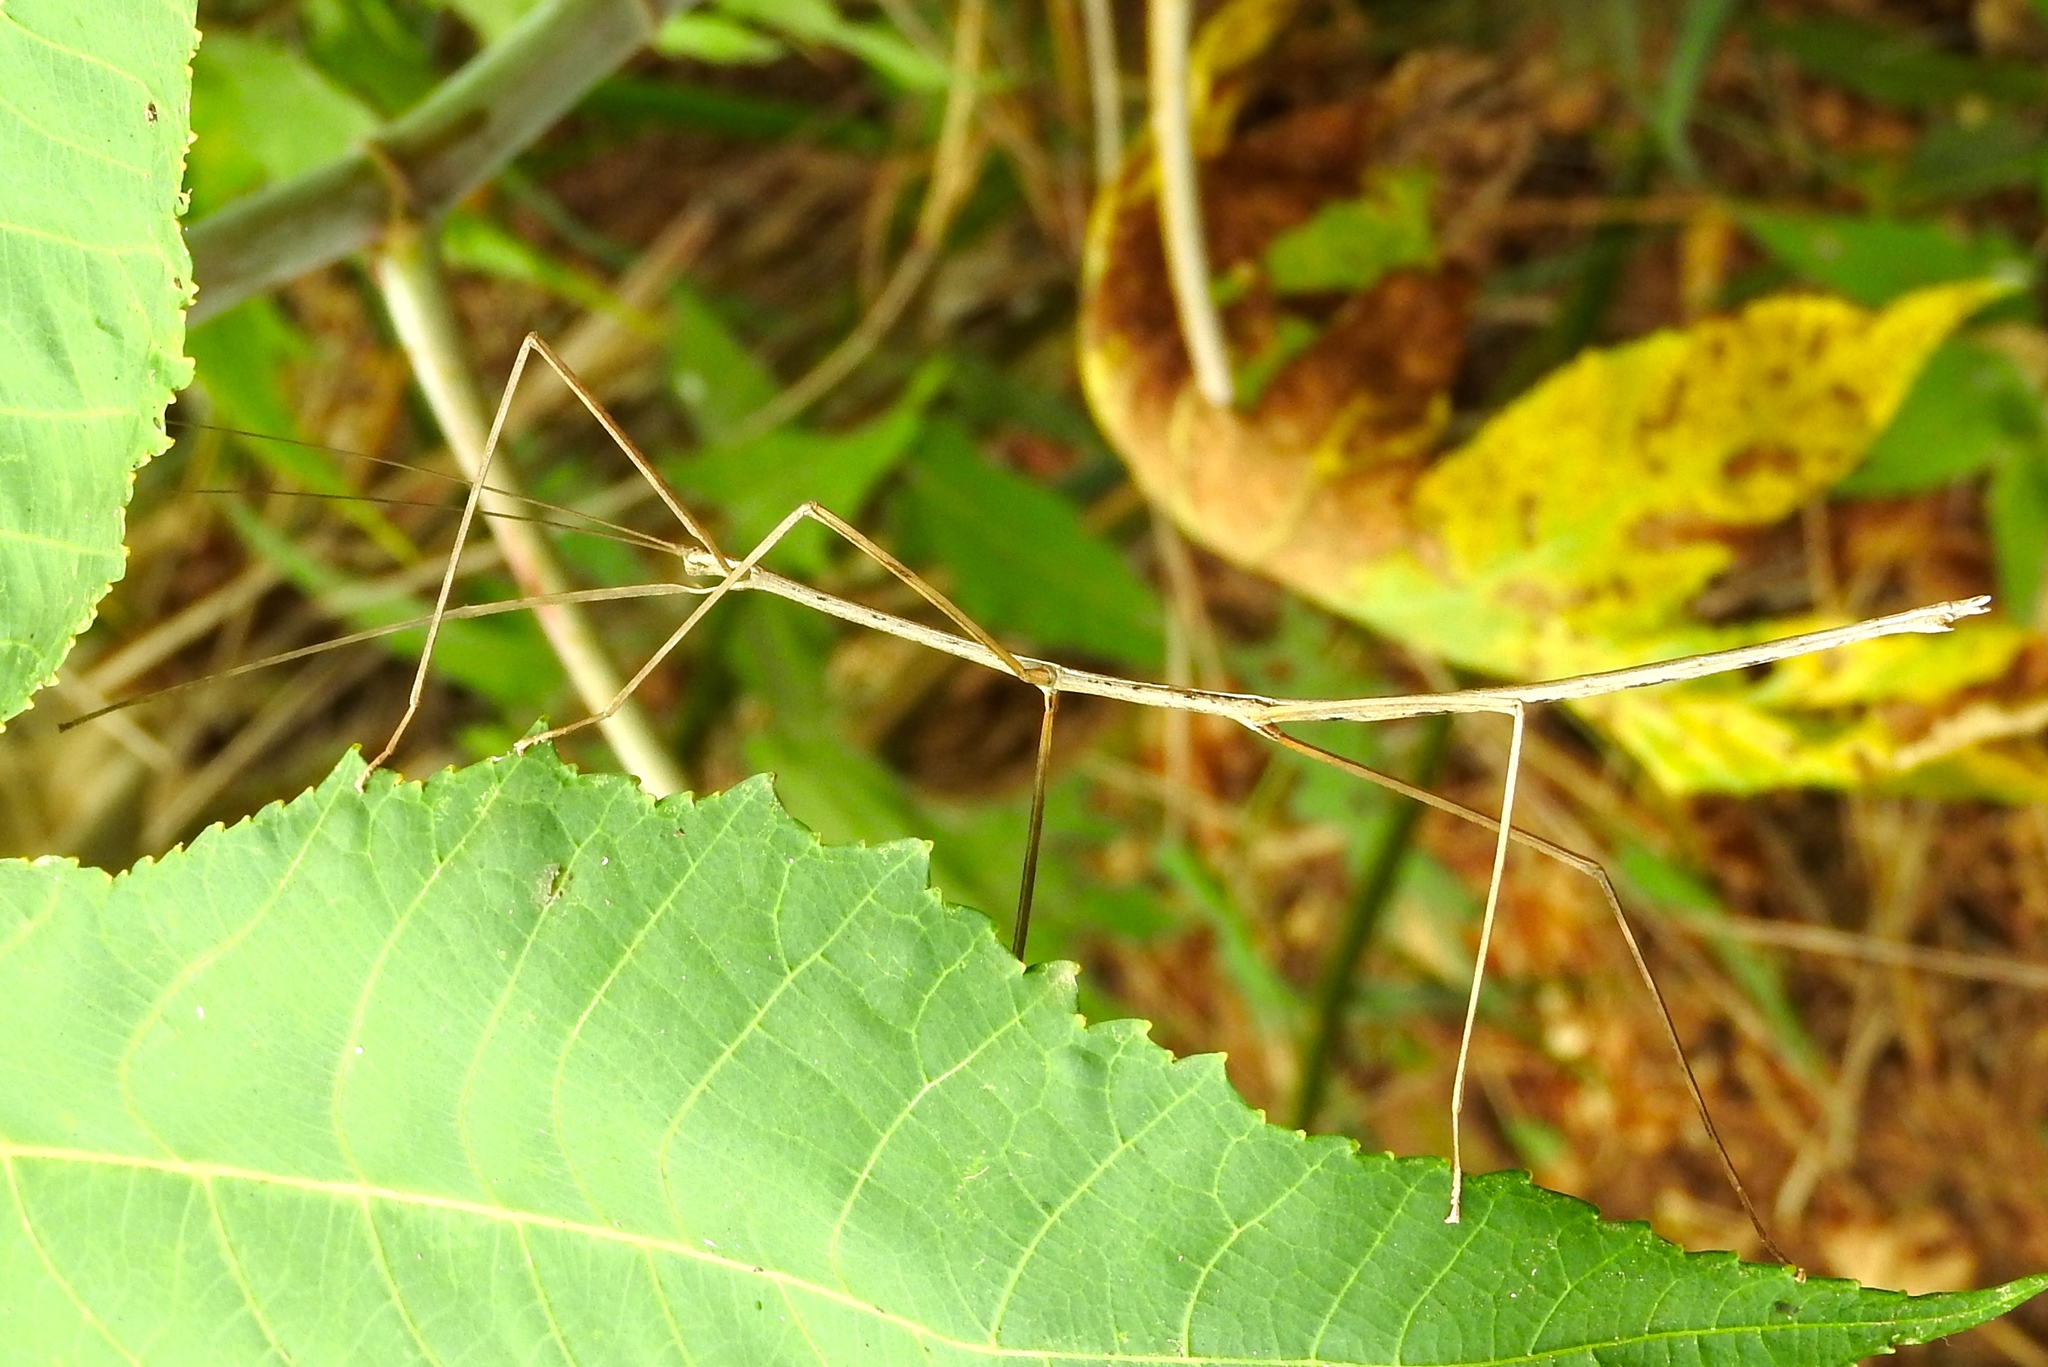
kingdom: Animalia
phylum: Arthropoda
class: Insecta
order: Phasmida
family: Diapheromeridae
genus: Phanocles
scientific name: Phanocles
